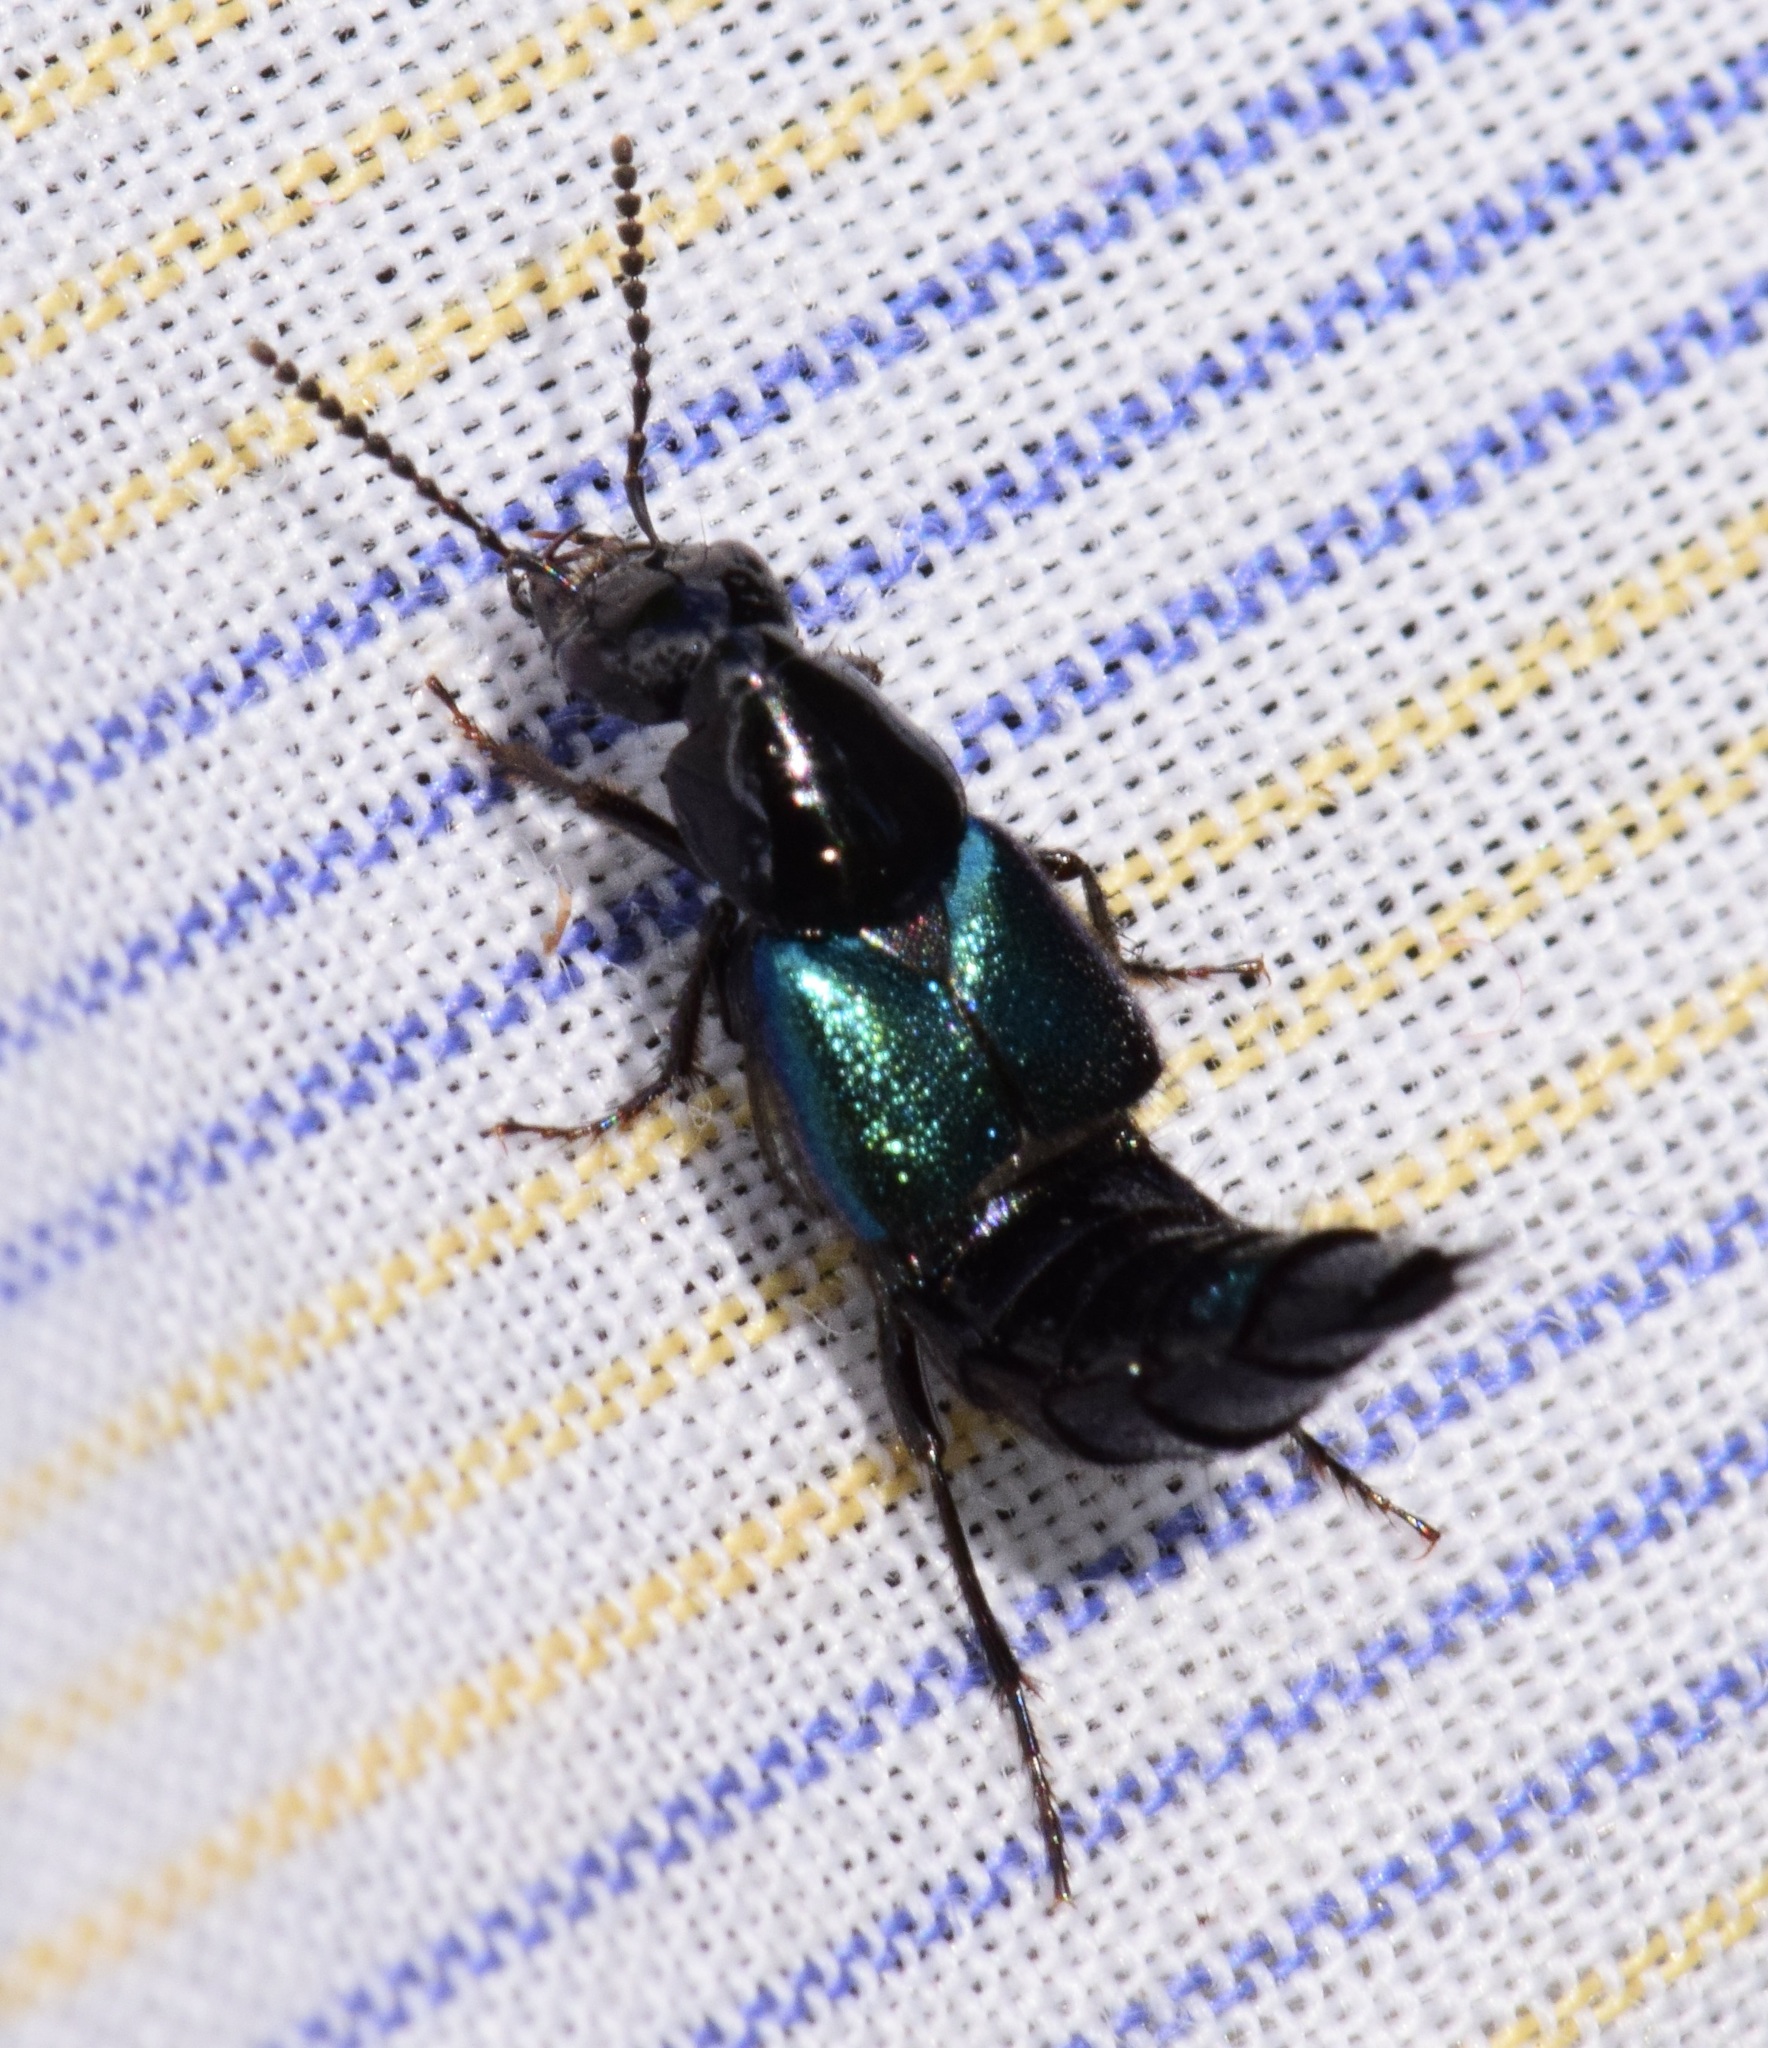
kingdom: Animalia
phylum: Arthropoda
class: Insecta
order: Coleoptera
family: Staphylinidae
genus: Philonthus
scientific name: Philonthus caeruleipennis
